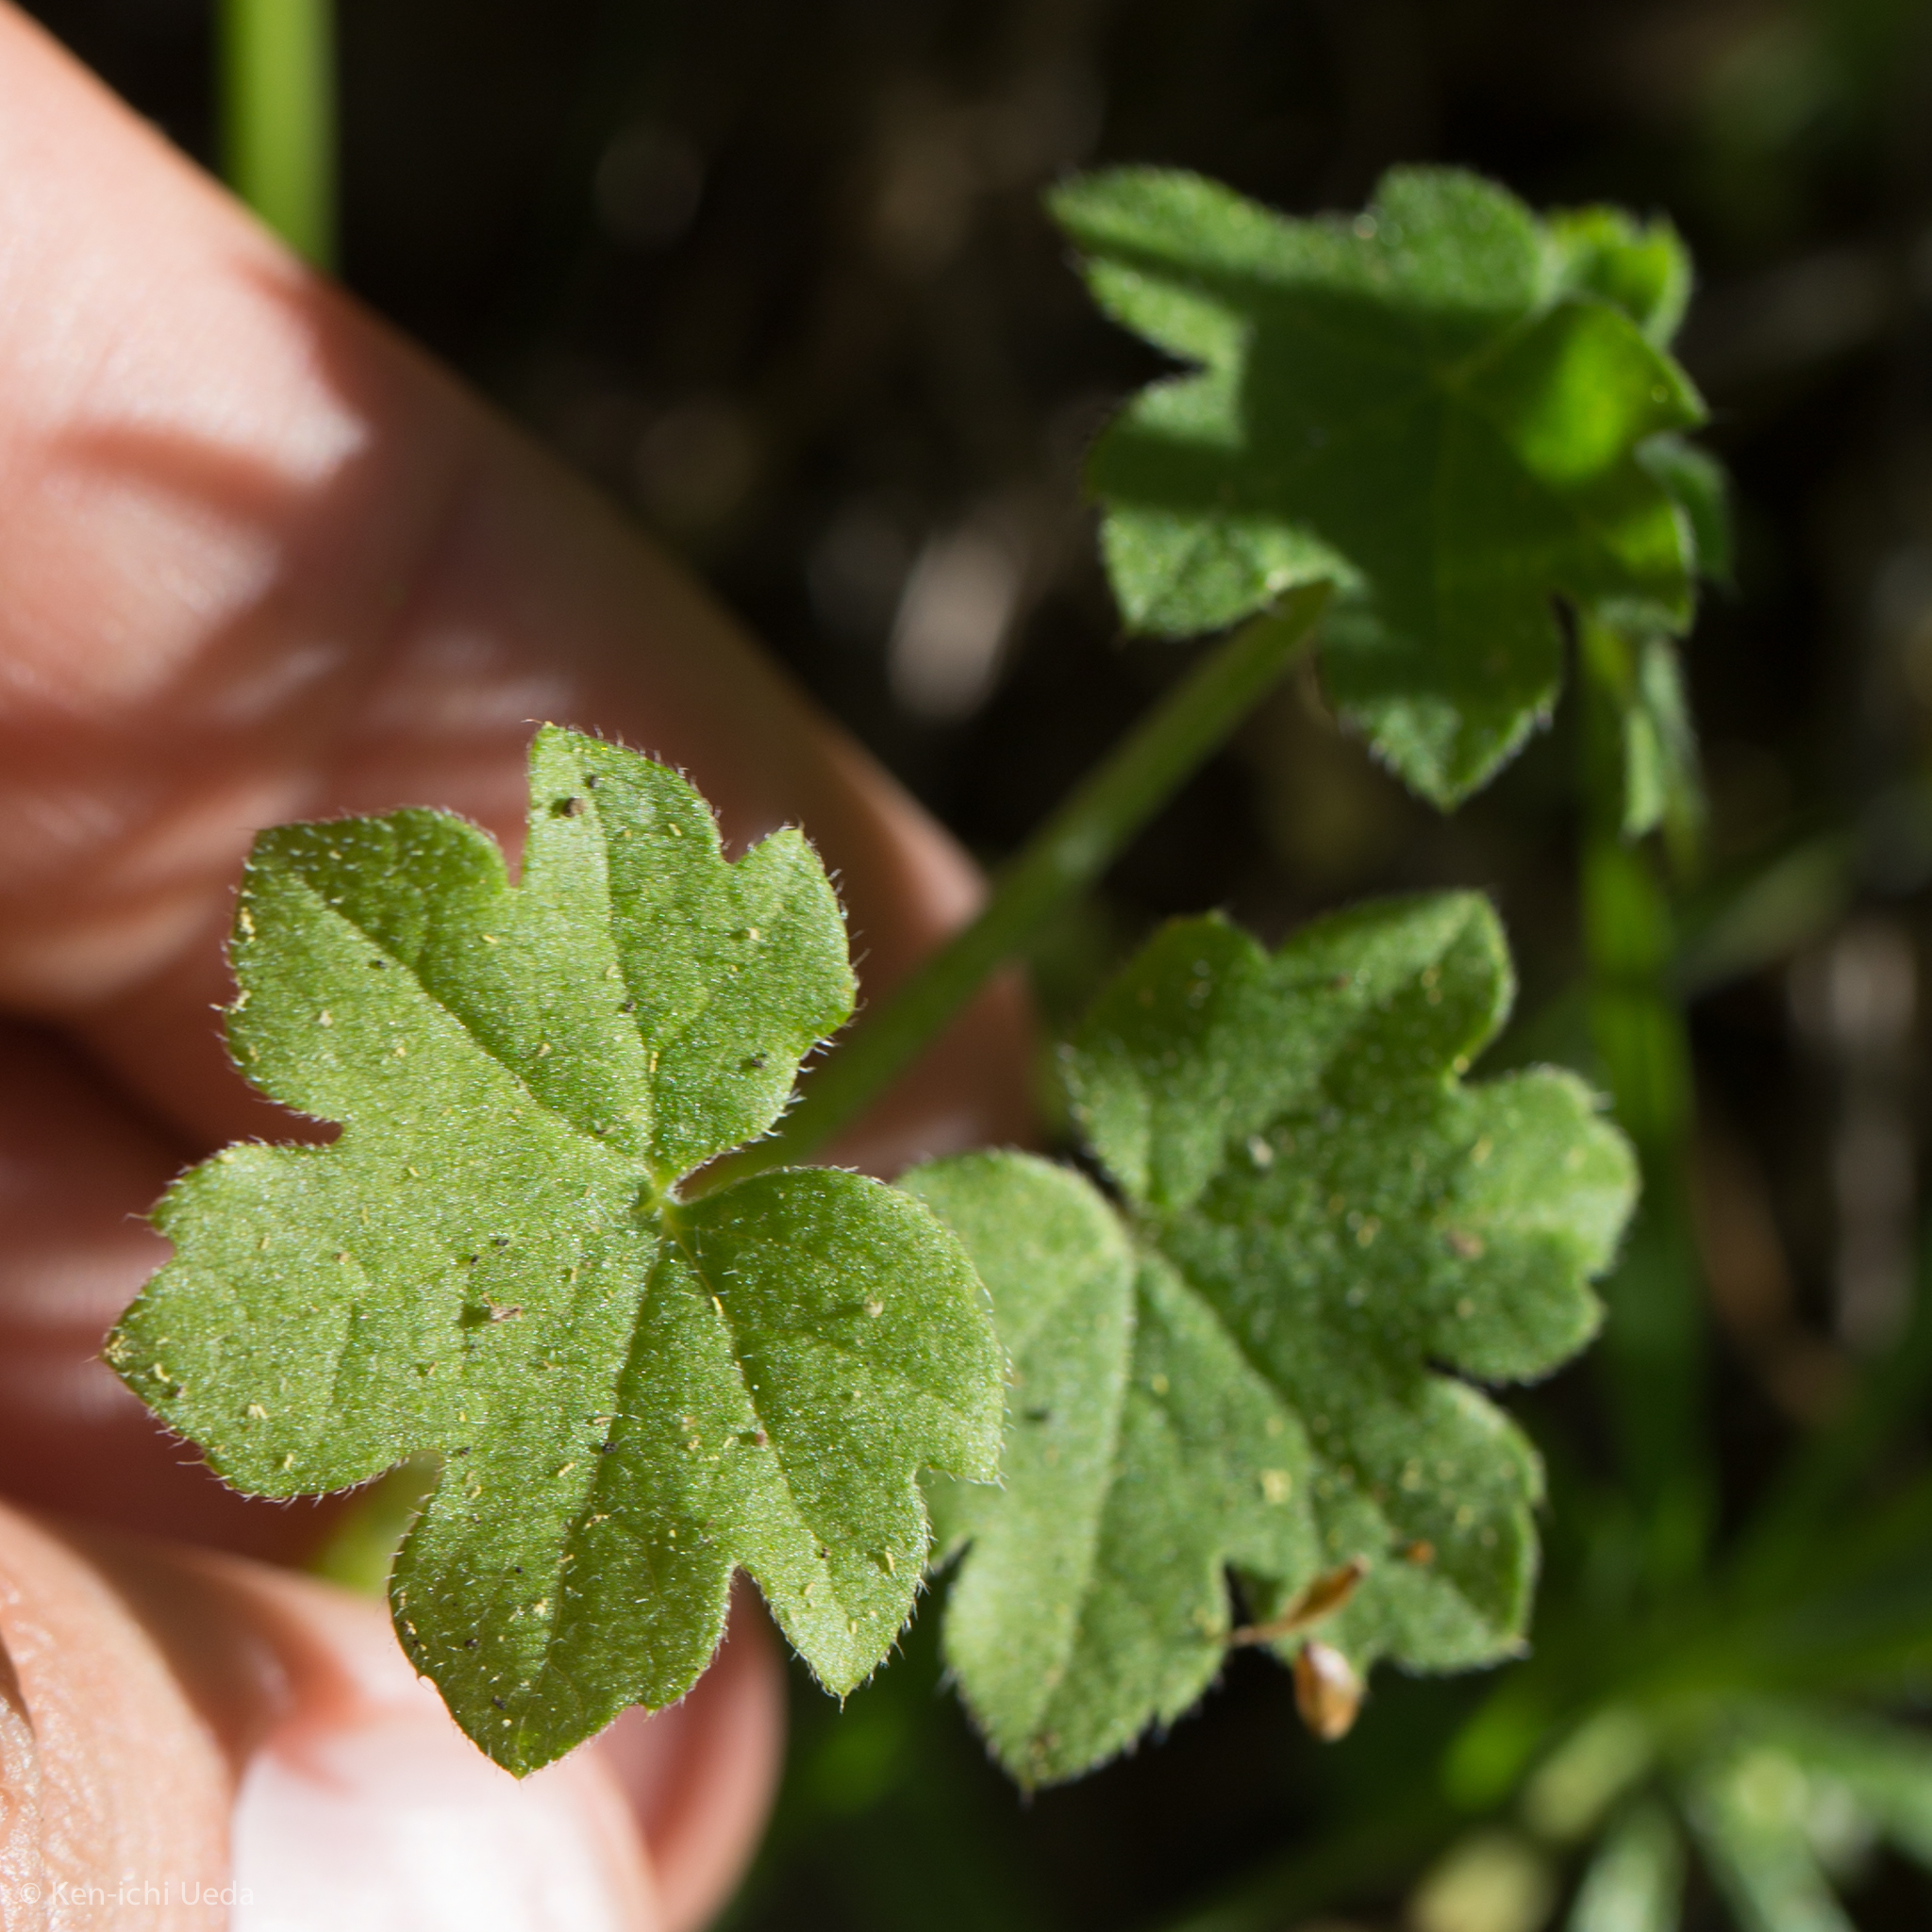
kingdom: Plantae
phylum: Tracheophyta
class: Magnoliopsida
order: Apiales
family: Apiaceae
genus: Bowlesia
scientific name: Bowlesia incana
